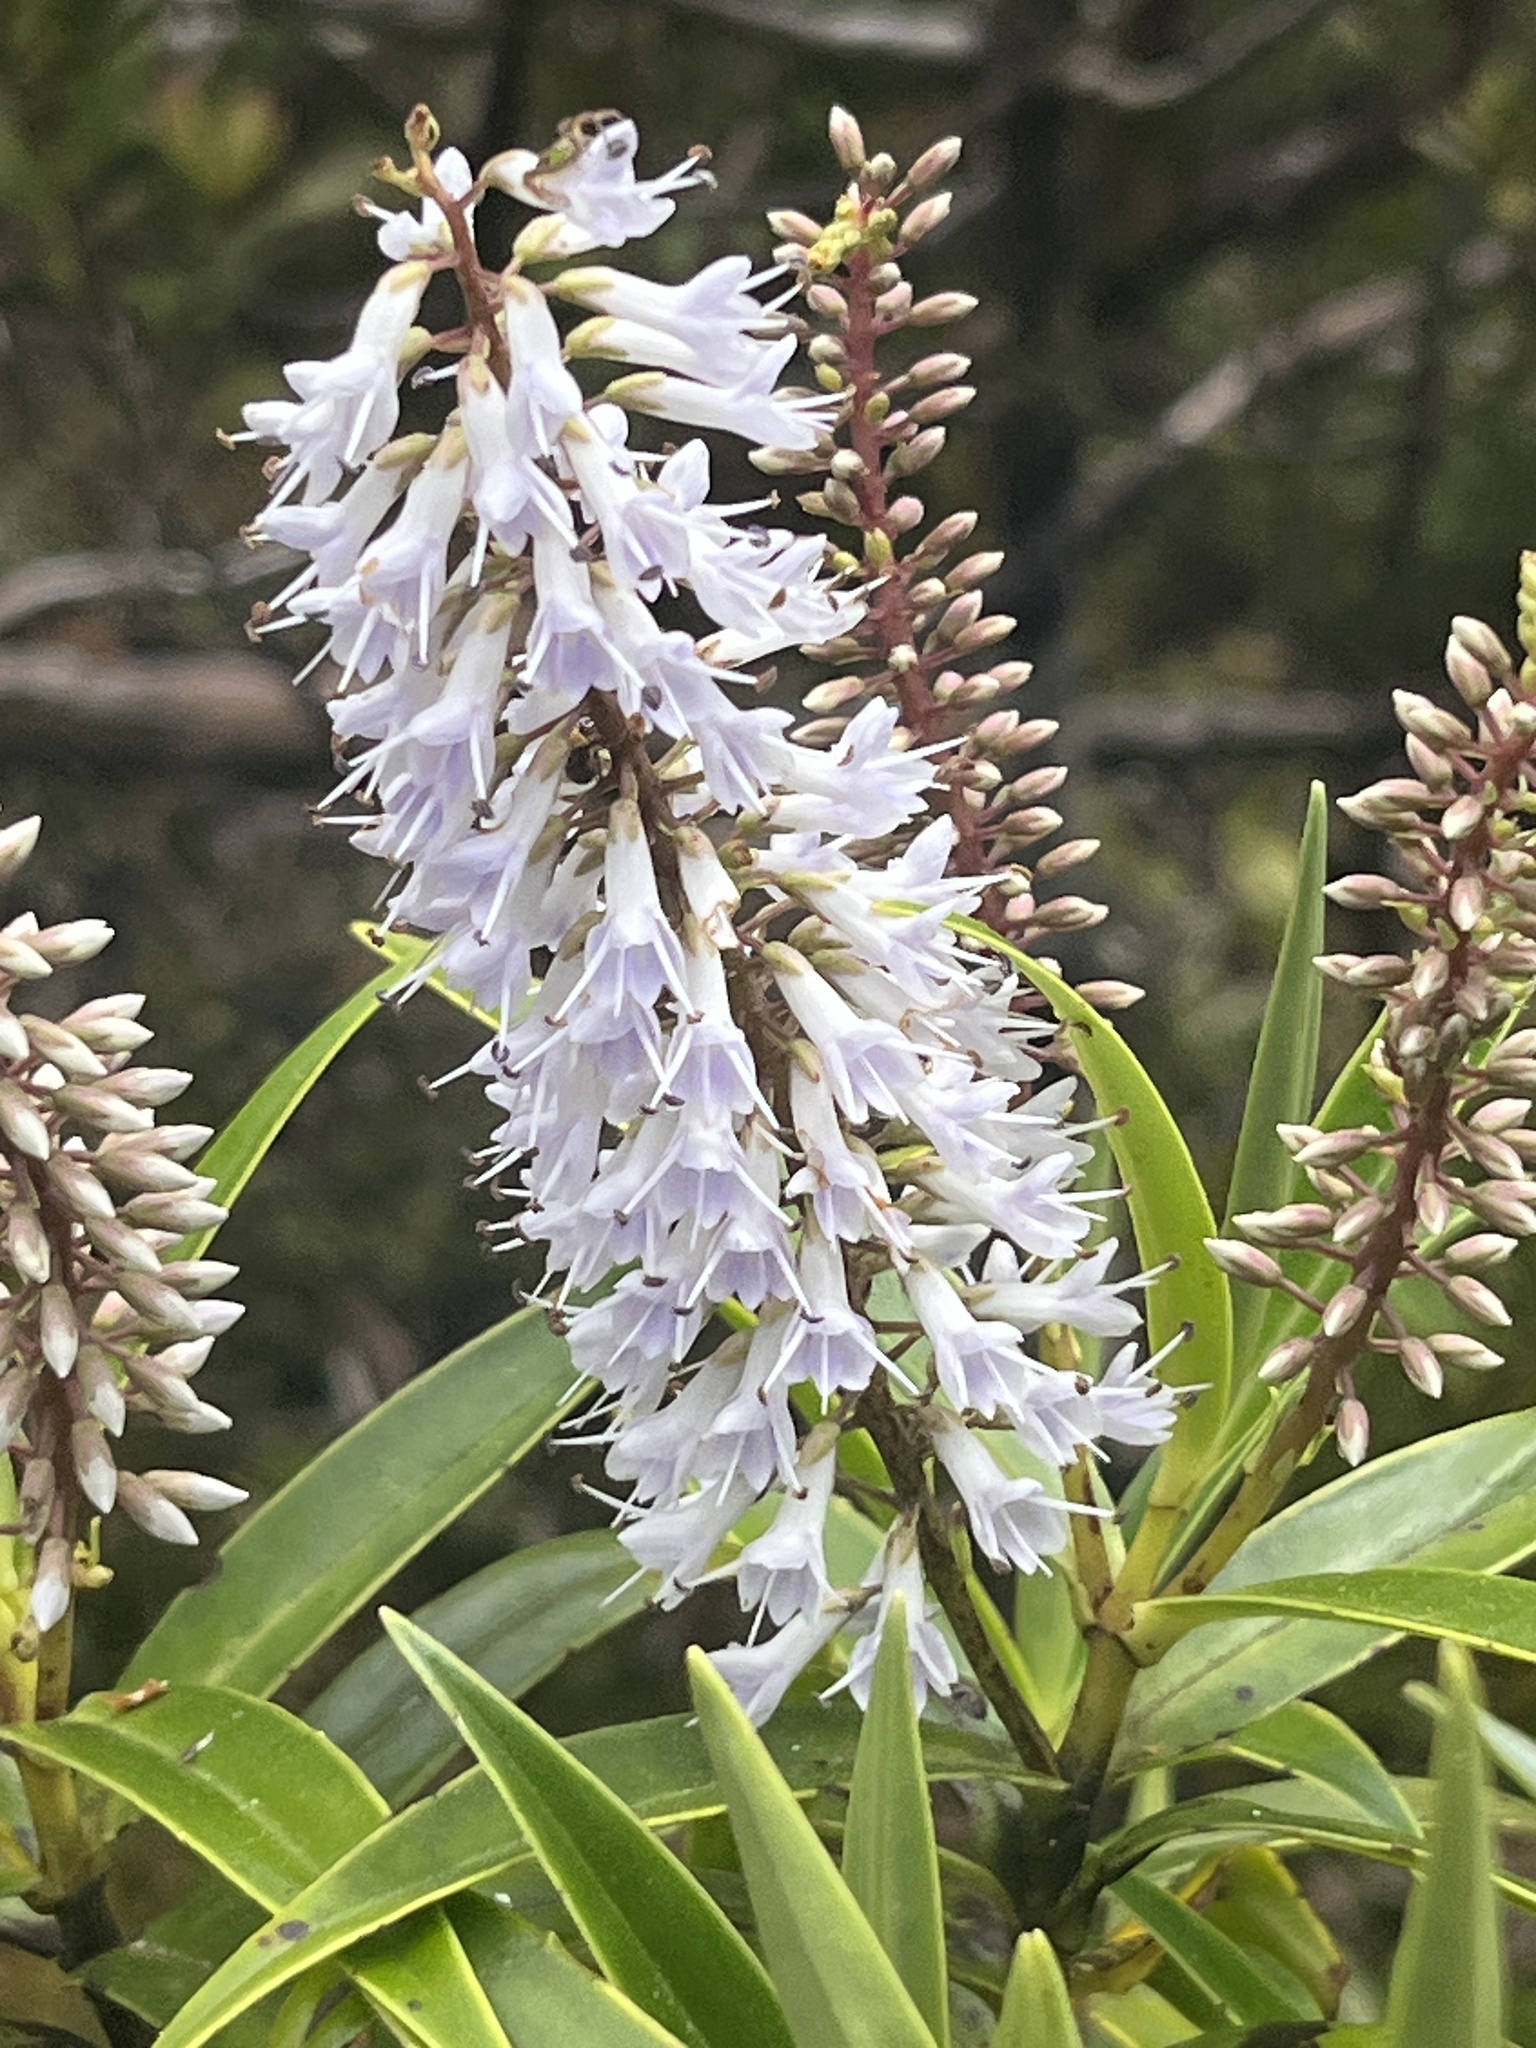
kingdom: Plantae
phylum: Tracheophyta
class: Magnoliopsida
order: Lamiales
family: Plantaginaceae
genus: Veronica
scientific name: Veronica corriganii
